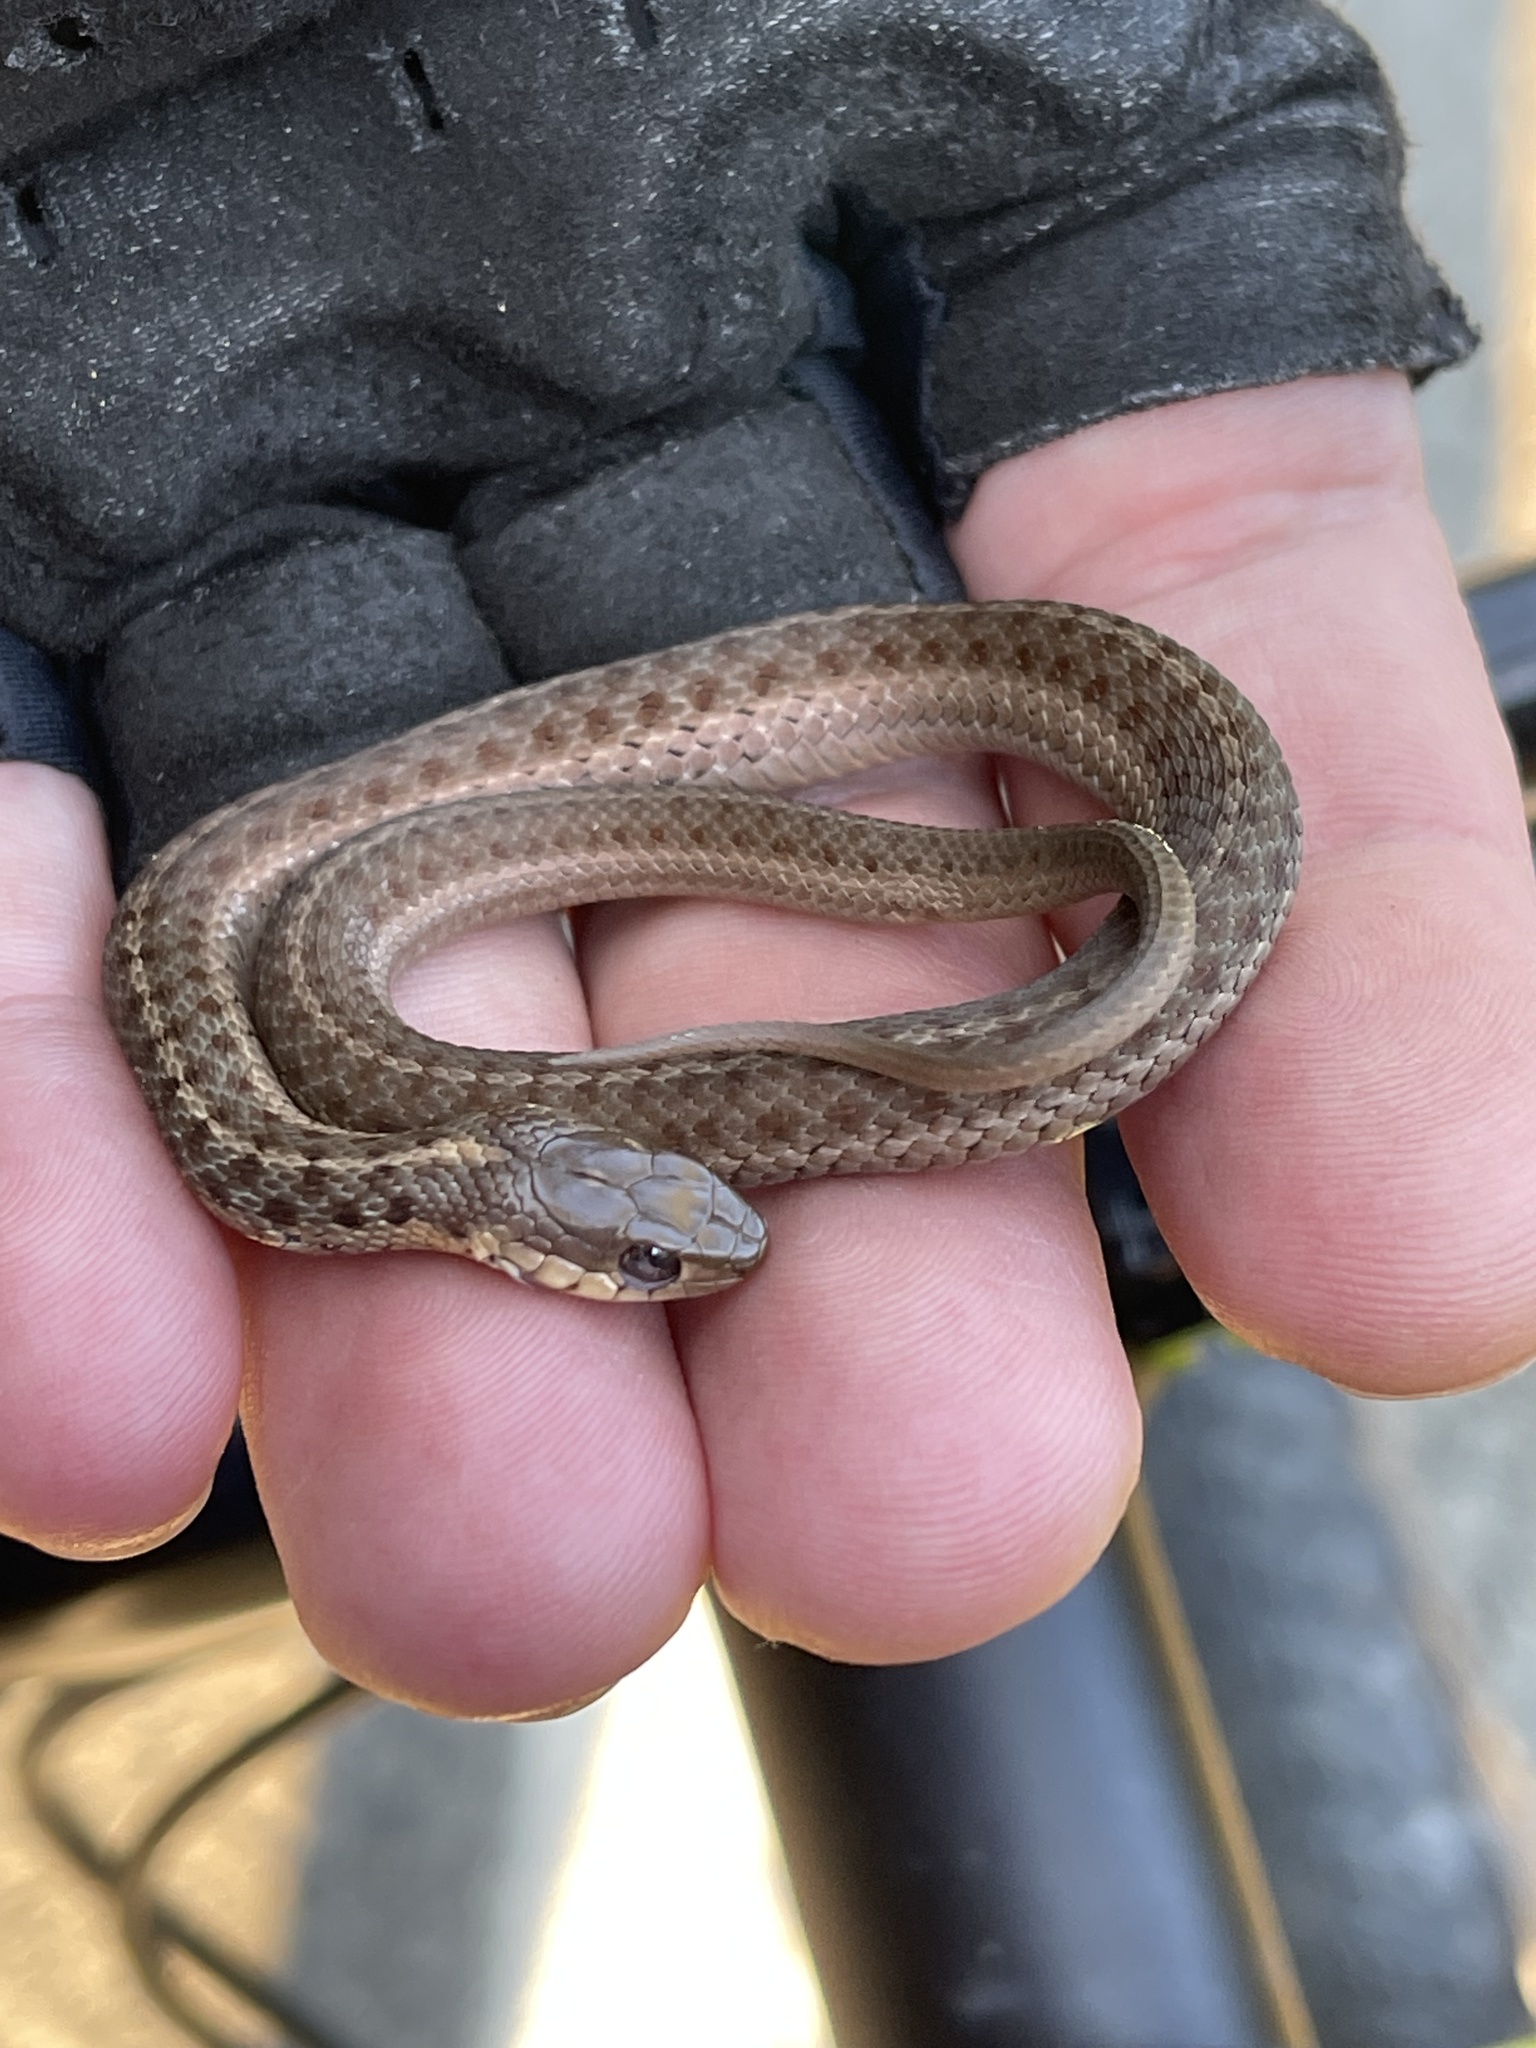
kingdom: Animalia
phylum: Chordata
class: Squamata
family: Colubridae
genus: Thamnophis
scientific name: Thamnophis sirtalis
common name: Common garter snake
